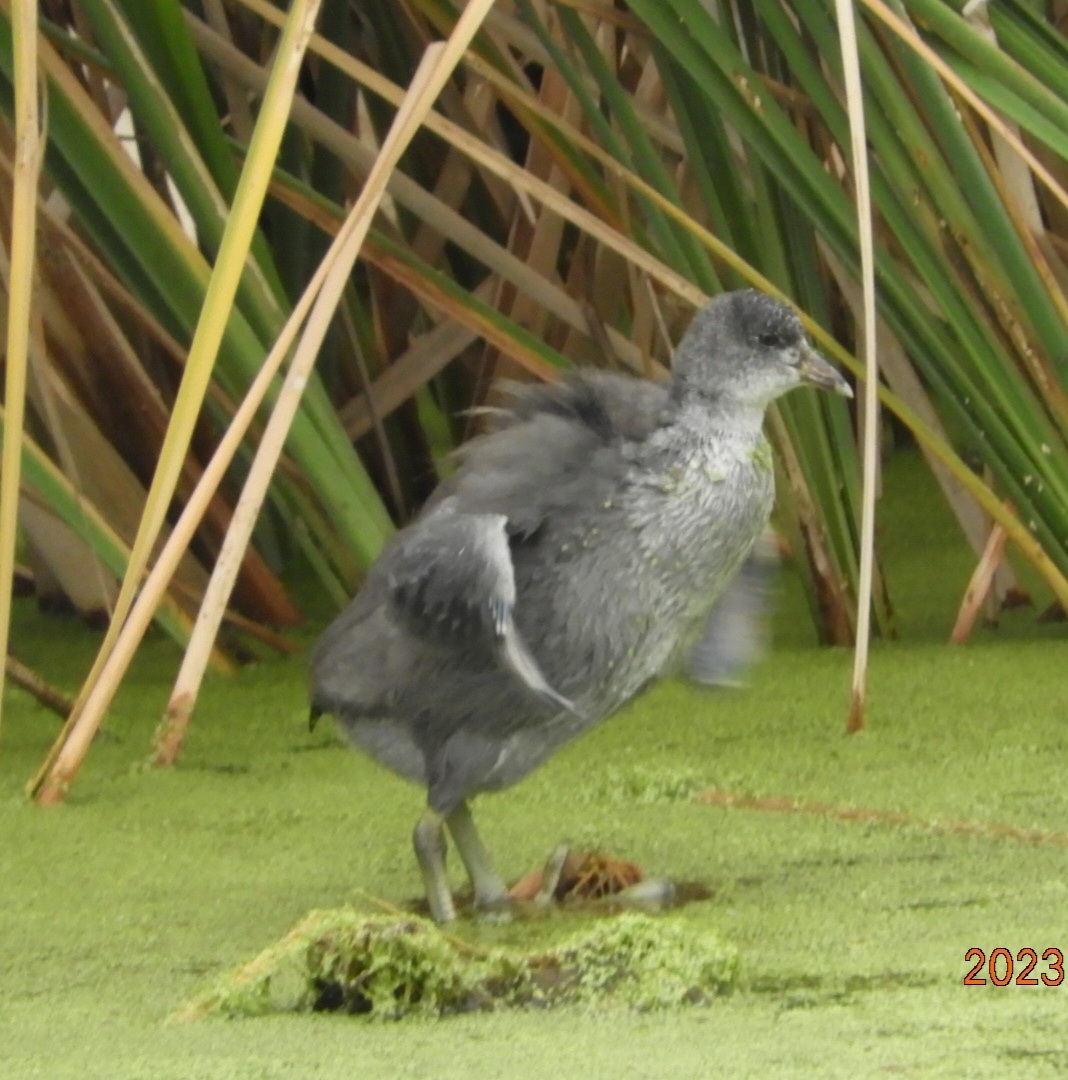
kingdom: Animalia
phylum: Chordata
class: Aves
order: Gruiformes
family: Rallidae
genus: Fulica
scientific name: Fulica americana
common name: American coot
